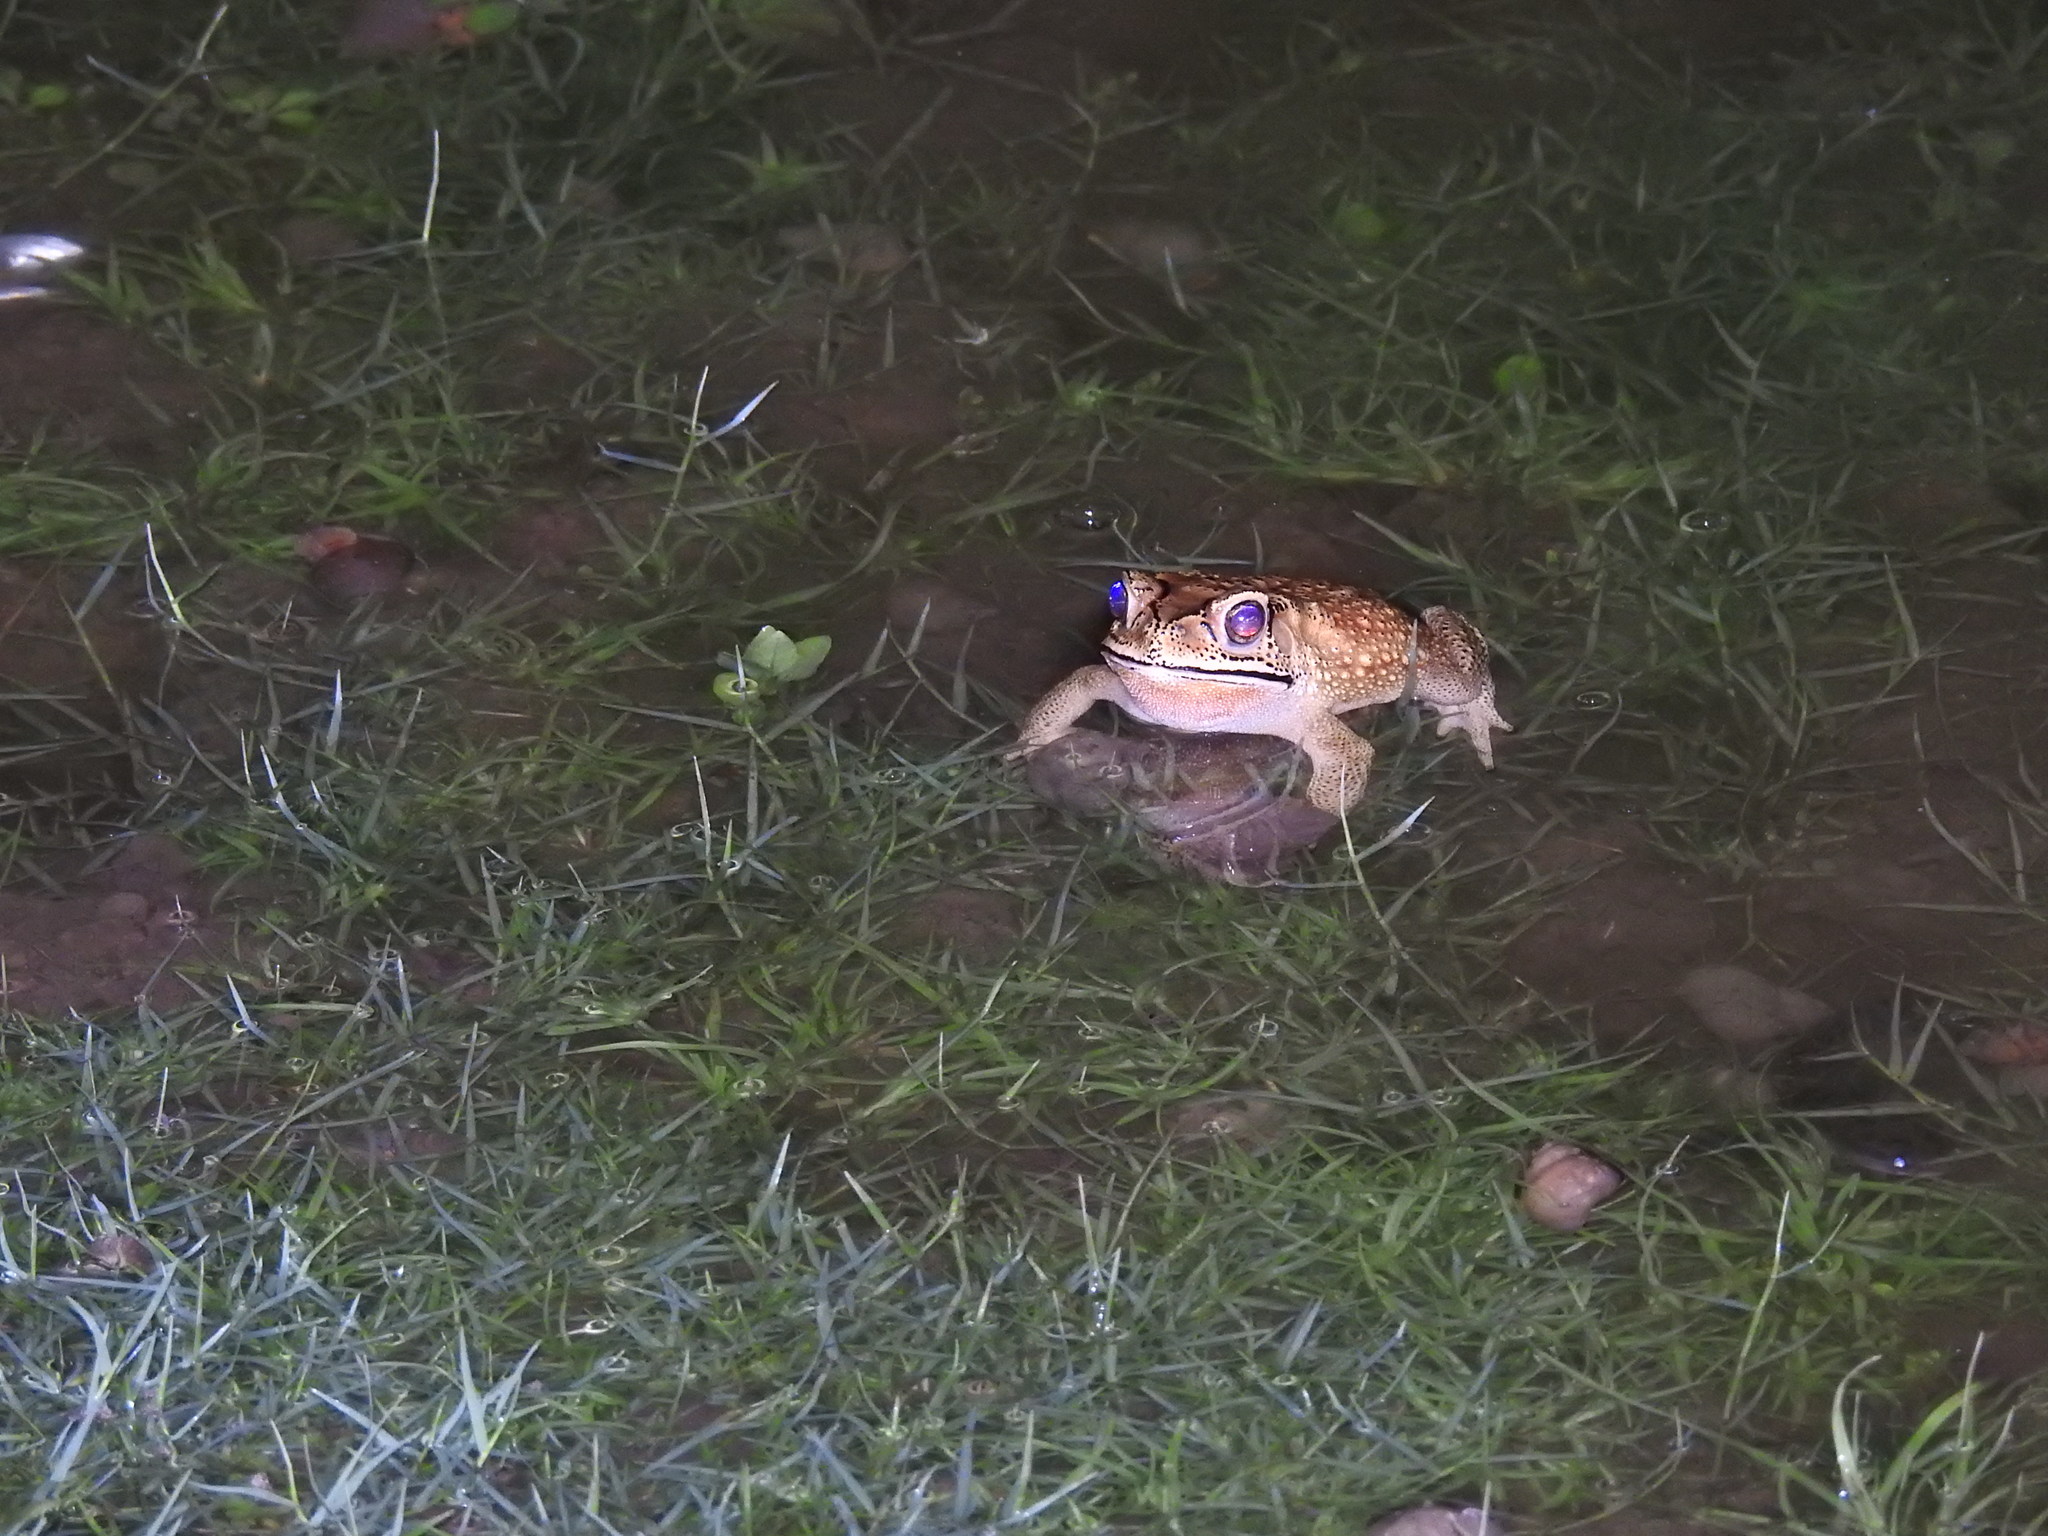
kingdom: Animalia
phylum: Chordata
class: Amphibia
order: Anura
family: Bufonidae
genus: Duttaphrynus
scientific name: Duttaphrynus melanostictus
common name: Common sunda toad
